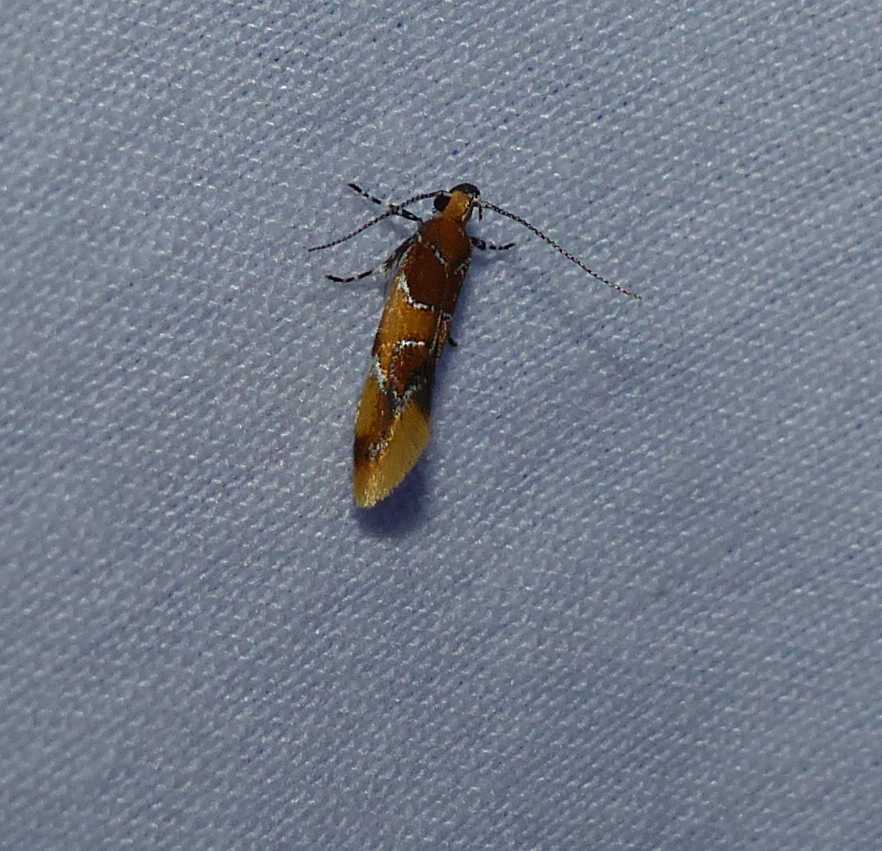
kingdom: Animalia
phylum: Arthropoda
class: Insecta
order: Lepidoptera
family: Oecophoridae
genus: Callima
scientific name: Callima argenticinctella
